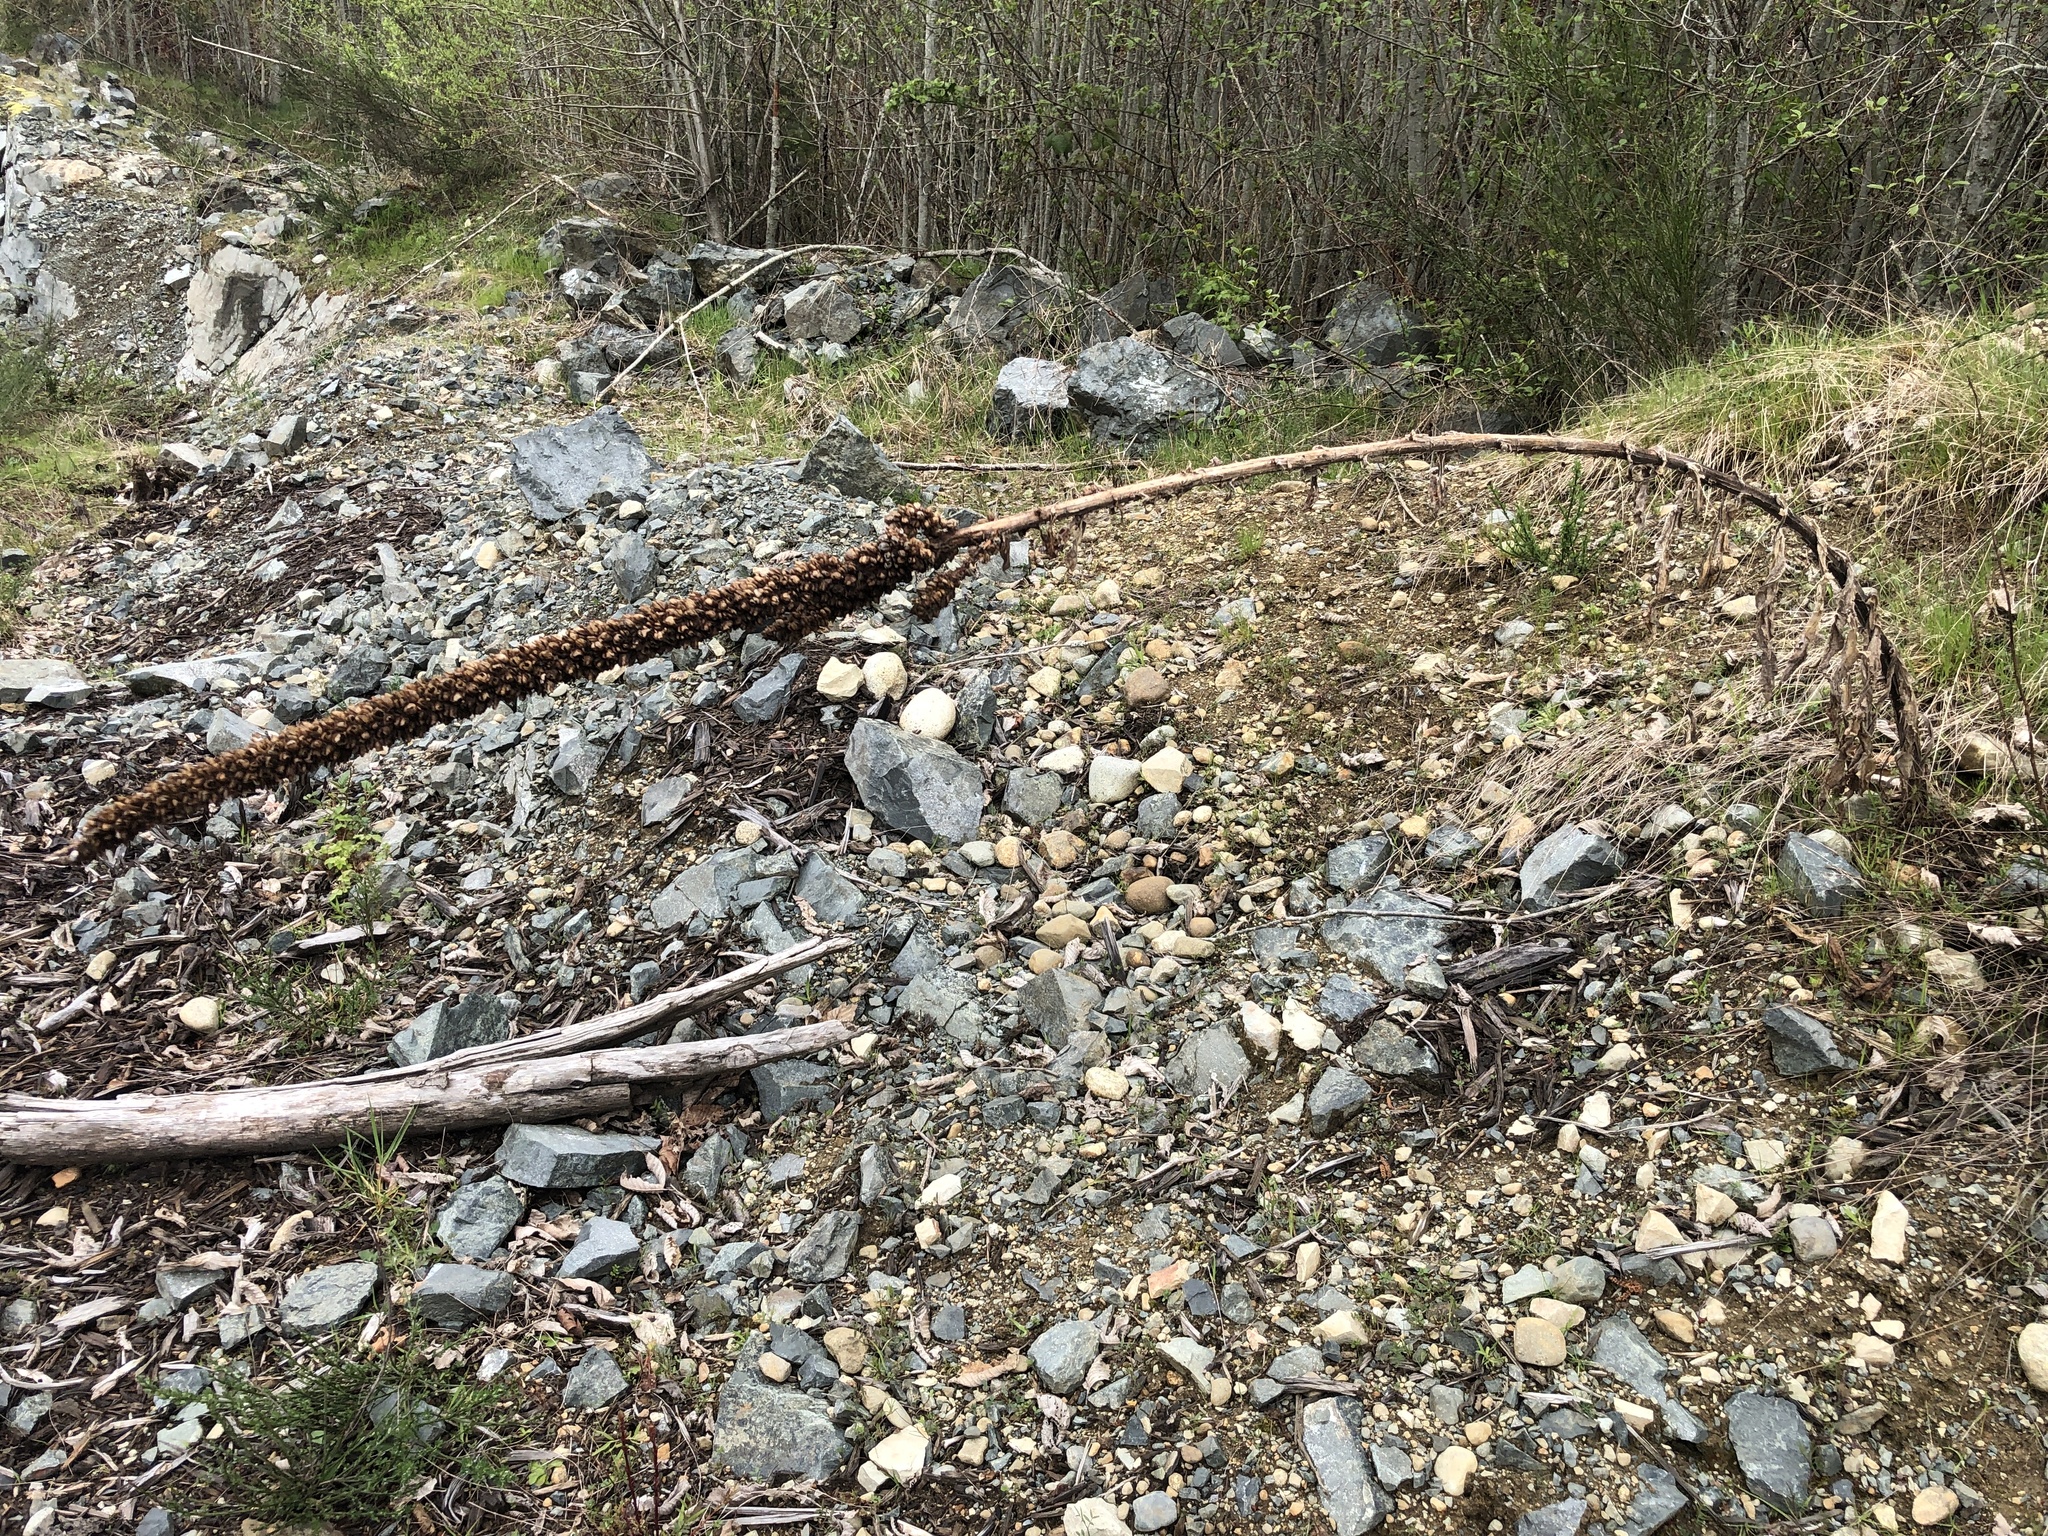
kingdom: Plantae
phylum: Tracheophyta
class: Magnoliopsida
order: Lamiales
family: Scrophulariaceae
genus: Verbascum
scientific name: Verbascum thapsus
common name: Common mullein
